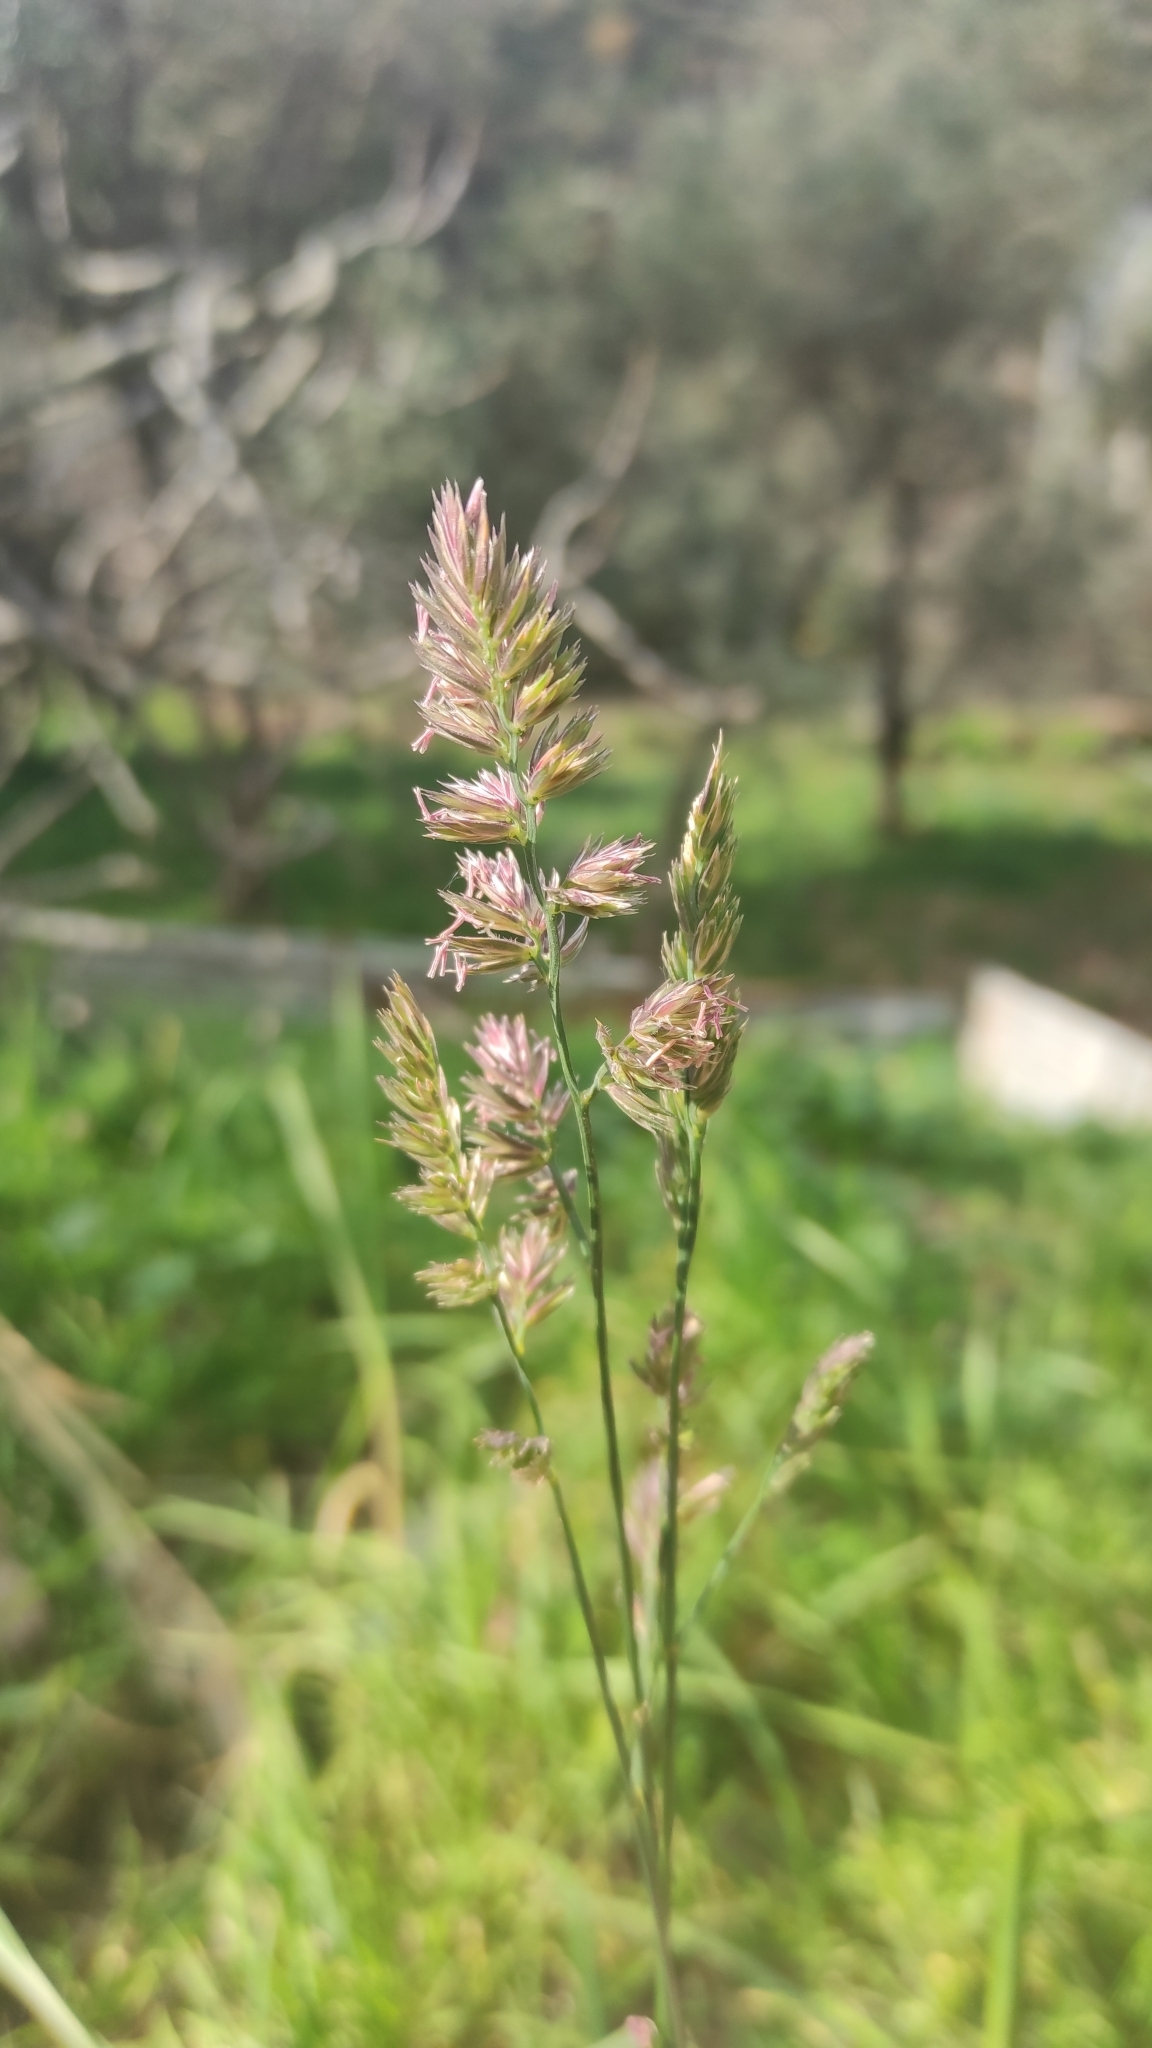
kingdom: Plantae
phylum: Tracheophyta
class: Liliopsida
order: Poales
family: Poaceae
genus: Dactylis
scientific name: Dactylis glomerata
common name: Orchardgrass
